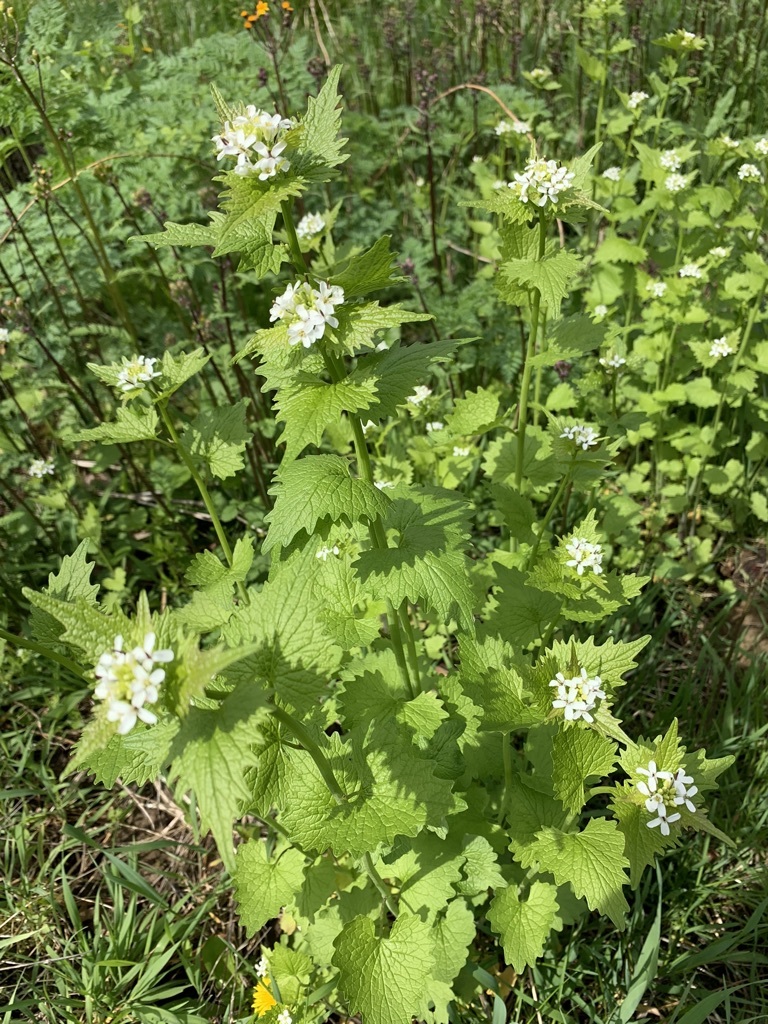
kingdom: Plantae
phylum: Tracheophyta
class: Magnoliopsida
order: Brassicales
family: Brassicaceae
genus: Alliaria
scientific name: Alliaria petiolata
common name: Garlic mustard
